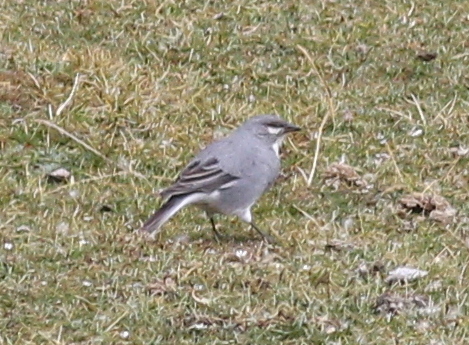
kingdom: Animalia
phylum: Chordata
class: Aves
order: Passeriformes
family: Thraupidae
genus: Idiopsar
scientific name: Idiopsar speculifer
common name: Glacier finch
